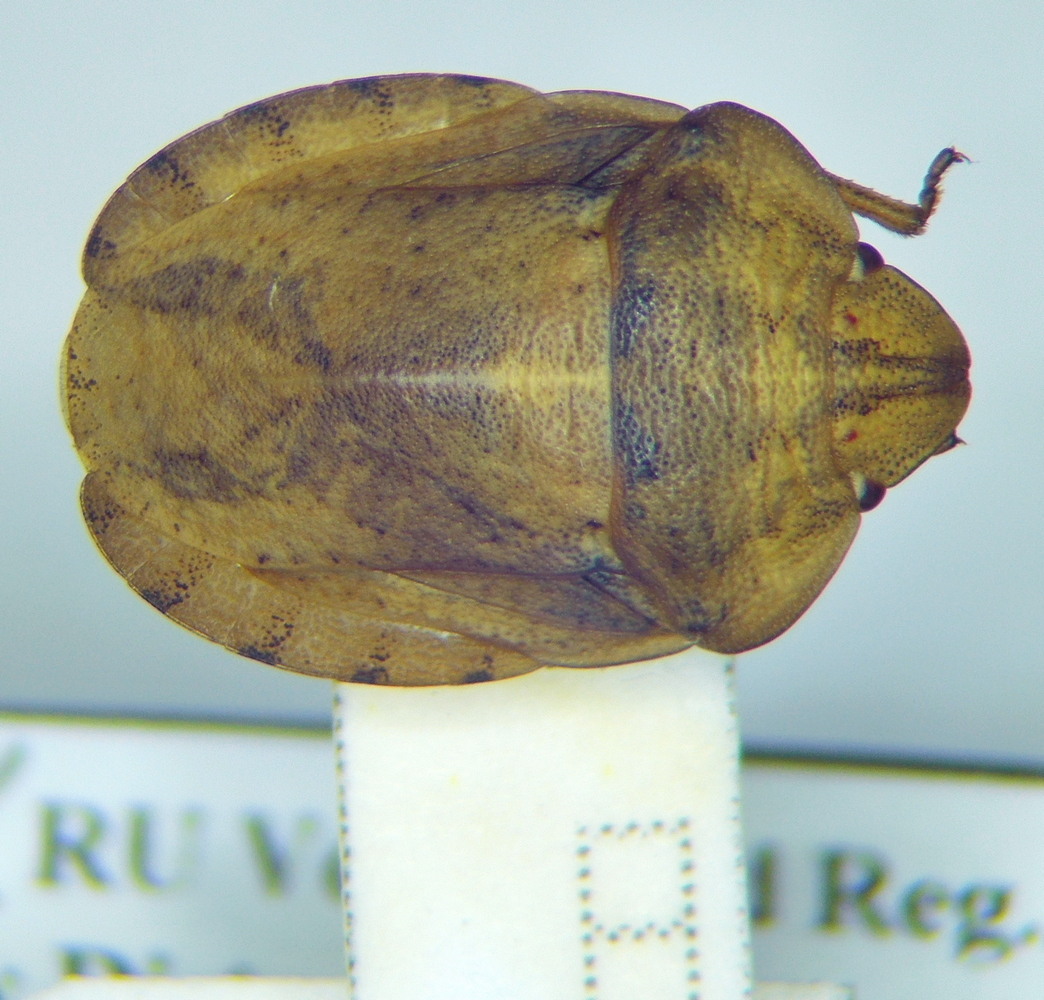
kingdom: Animalia
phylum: Arthropoda
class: Insecta
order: Hemiptera
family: Scutelleridae
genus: Eurygaster
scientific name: Eurygaster dilaticollis
